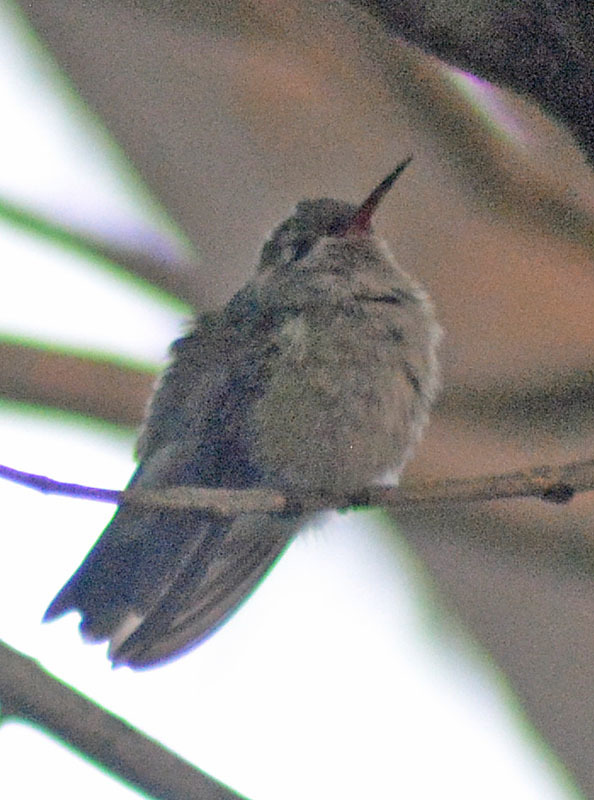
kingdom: Animalia
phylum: Chordata
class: Aves
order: Apodiformes
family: Trochilidae
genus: Cynanthus
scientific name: Cynanthus latirostris
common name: Broad-billed hummingbird
